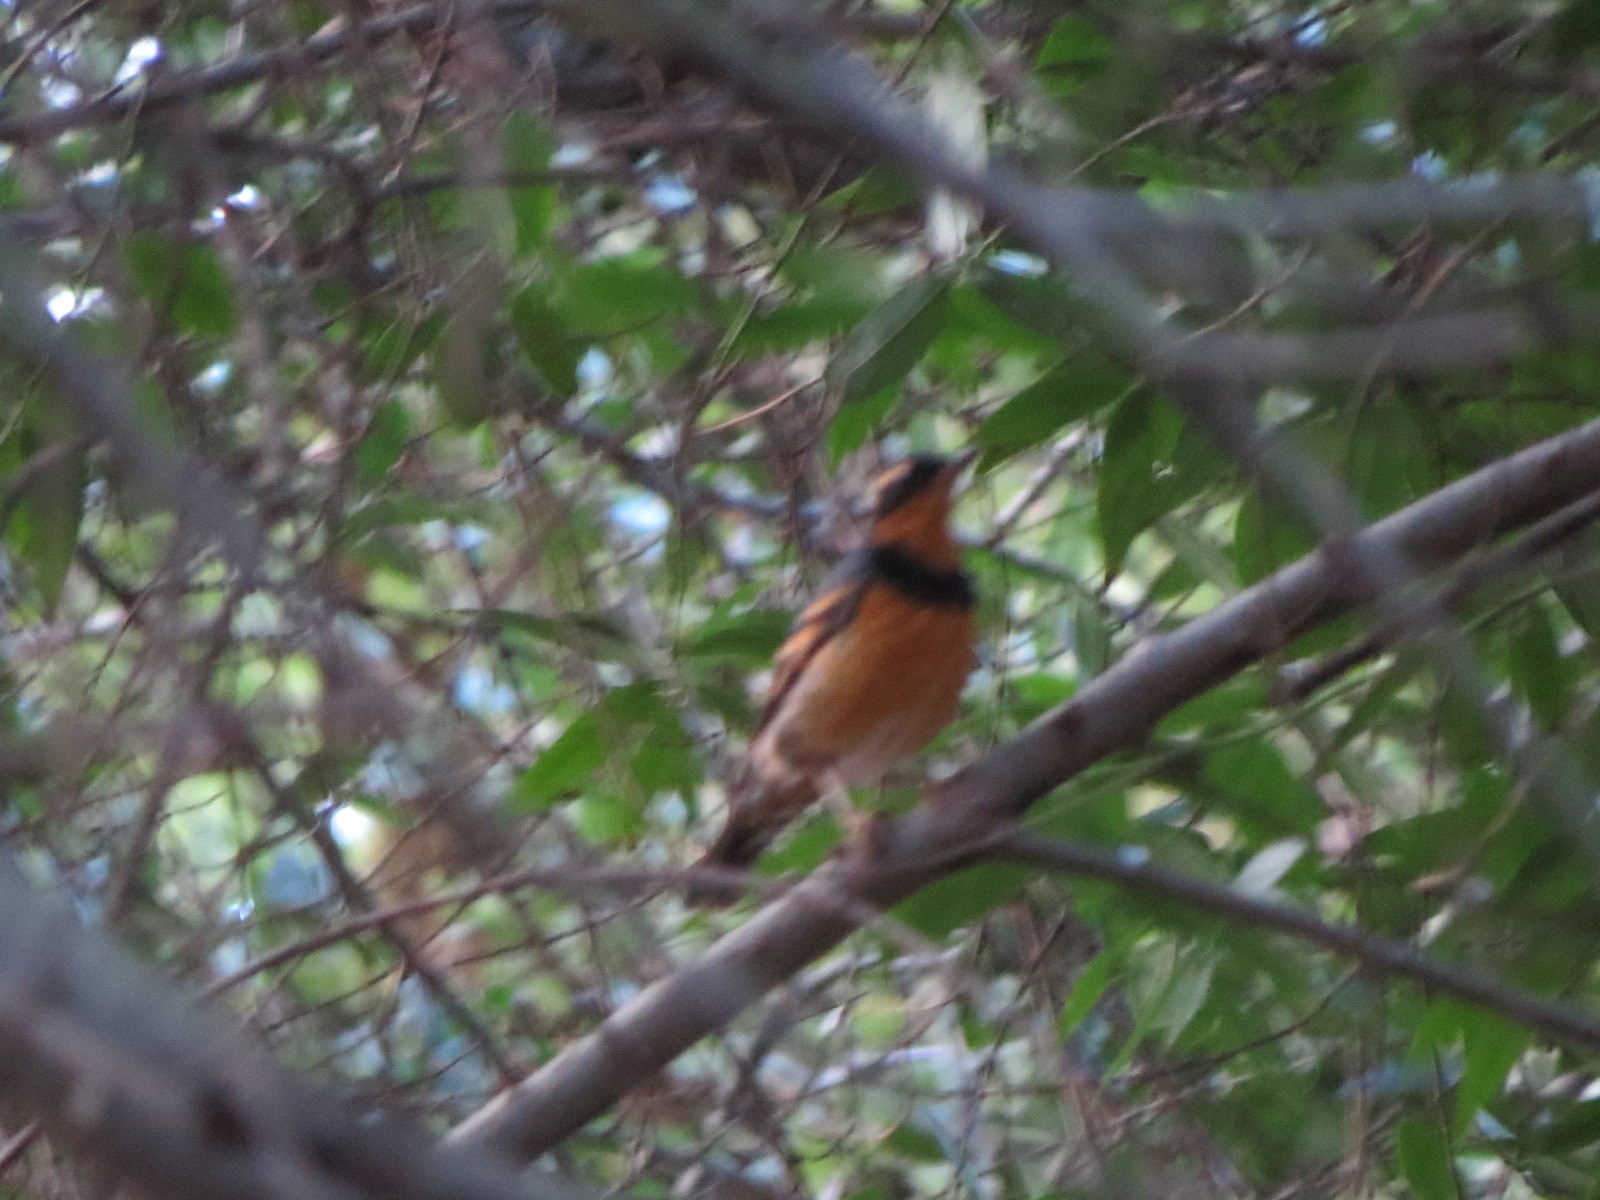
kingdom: Animalia
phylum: Chordata
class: Aves
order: Passeriformes
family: Turdidae
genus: Ixoreus
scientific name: Ixoreus naevius
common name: Varied thrush
